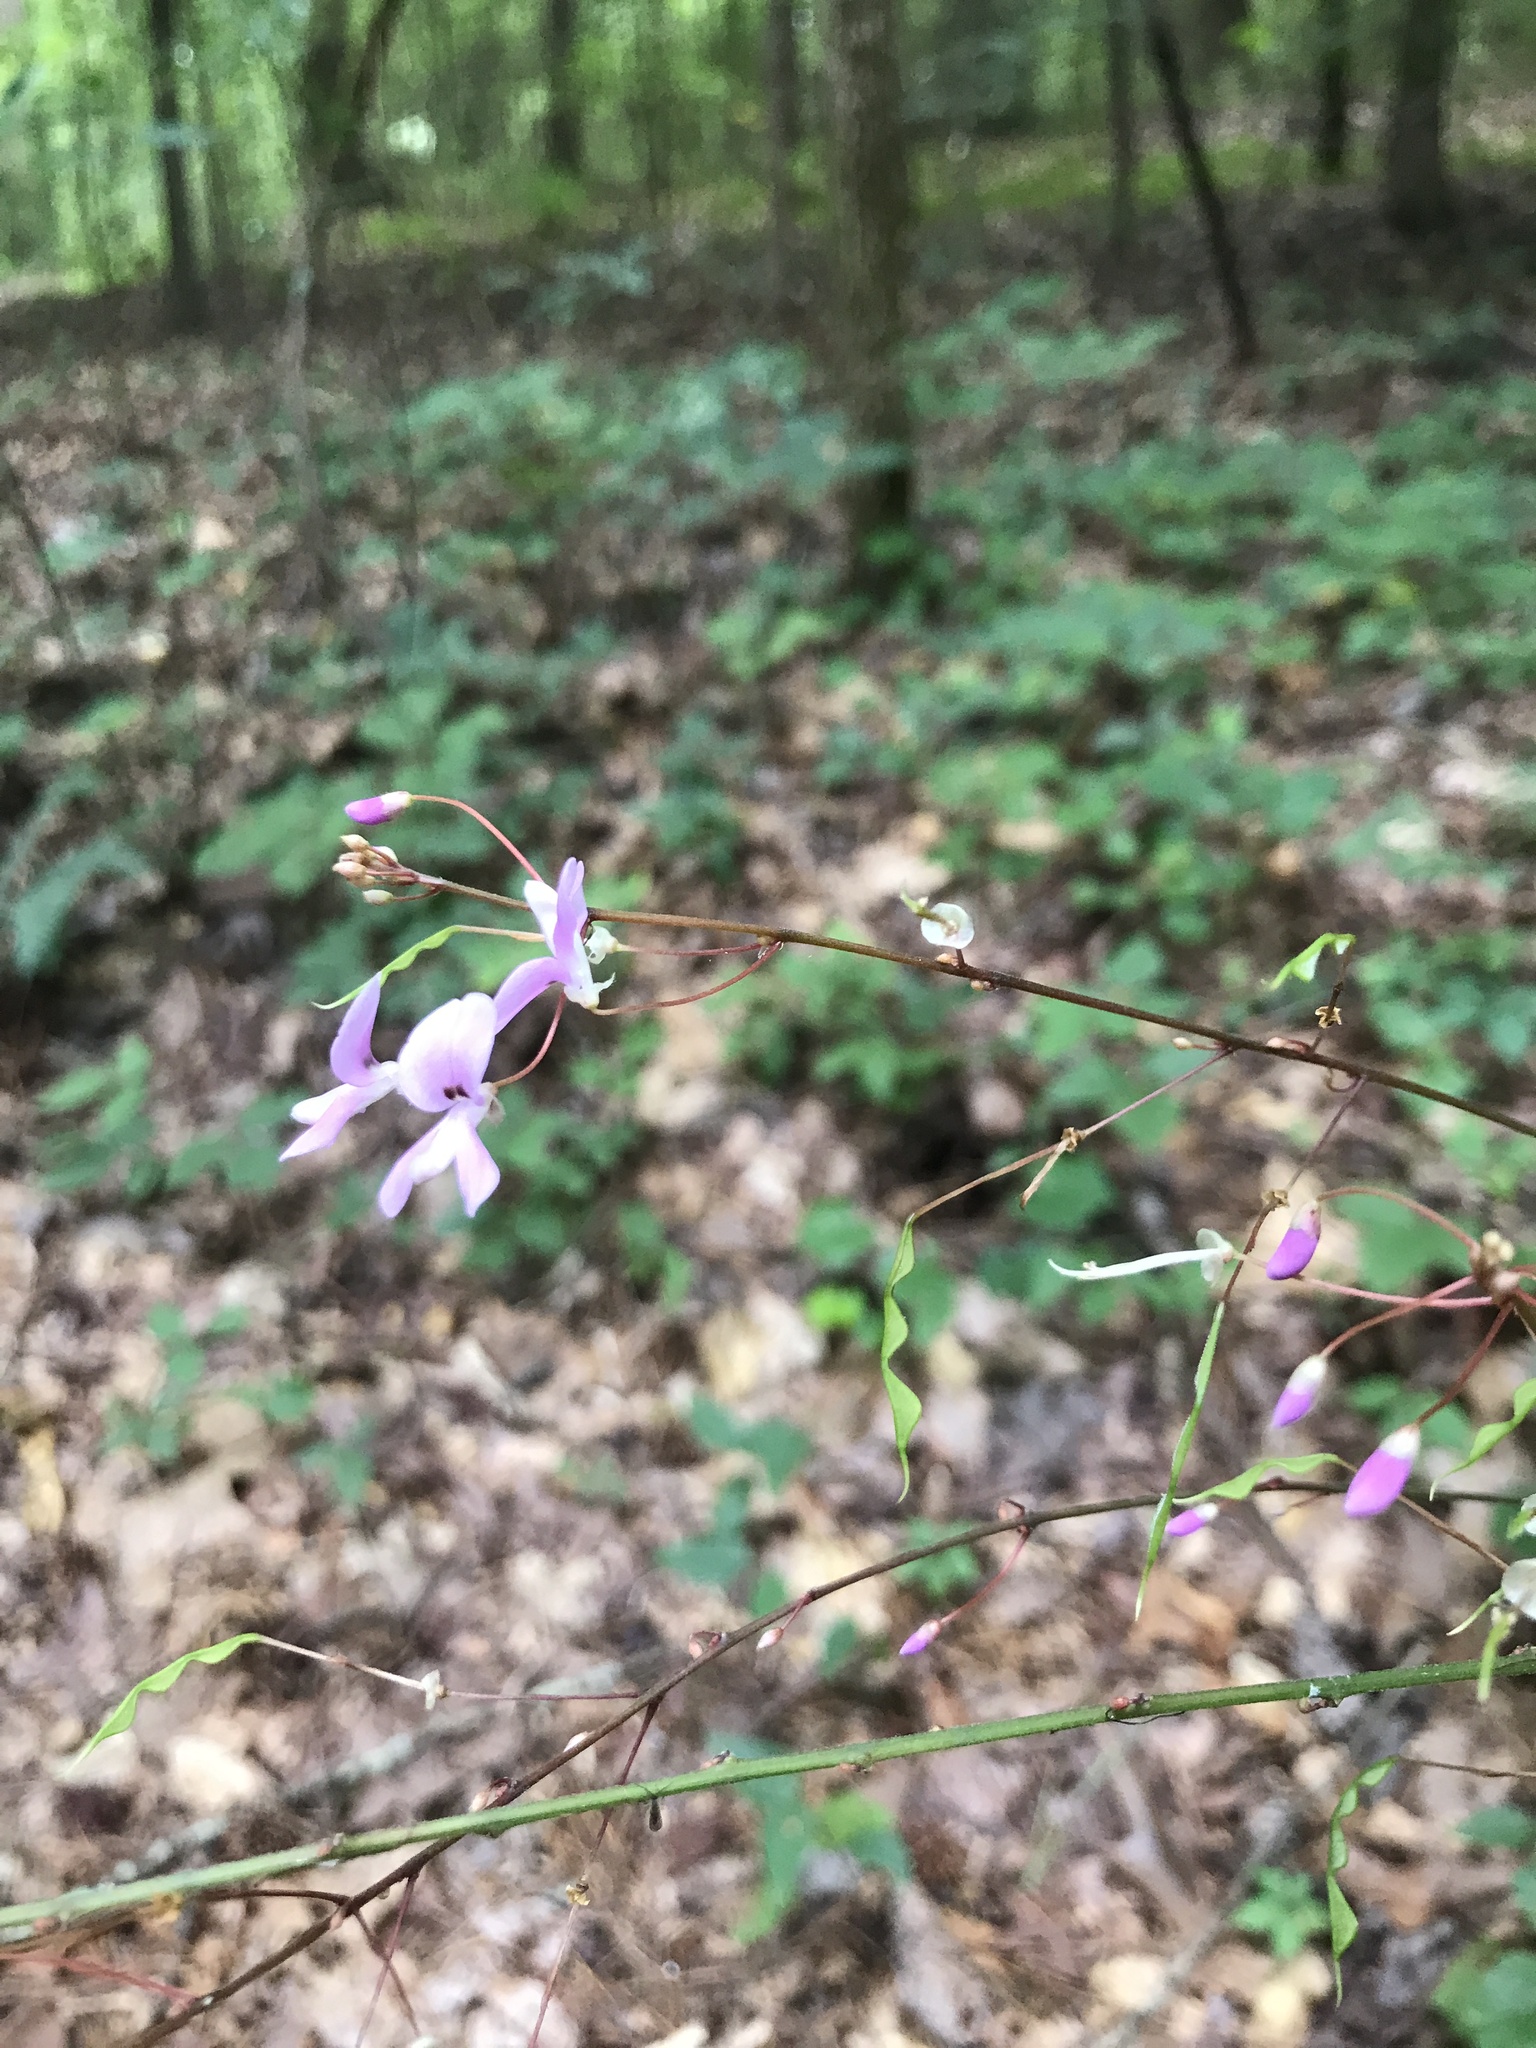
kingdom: Plantae
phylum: Tracheophyta
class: Magnoliopsida
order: Fabales
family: Fabaceae
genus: Hylodesmum
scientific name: Hylodesmum nudiflorum
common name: Bare-stemmed tick-trefoil
